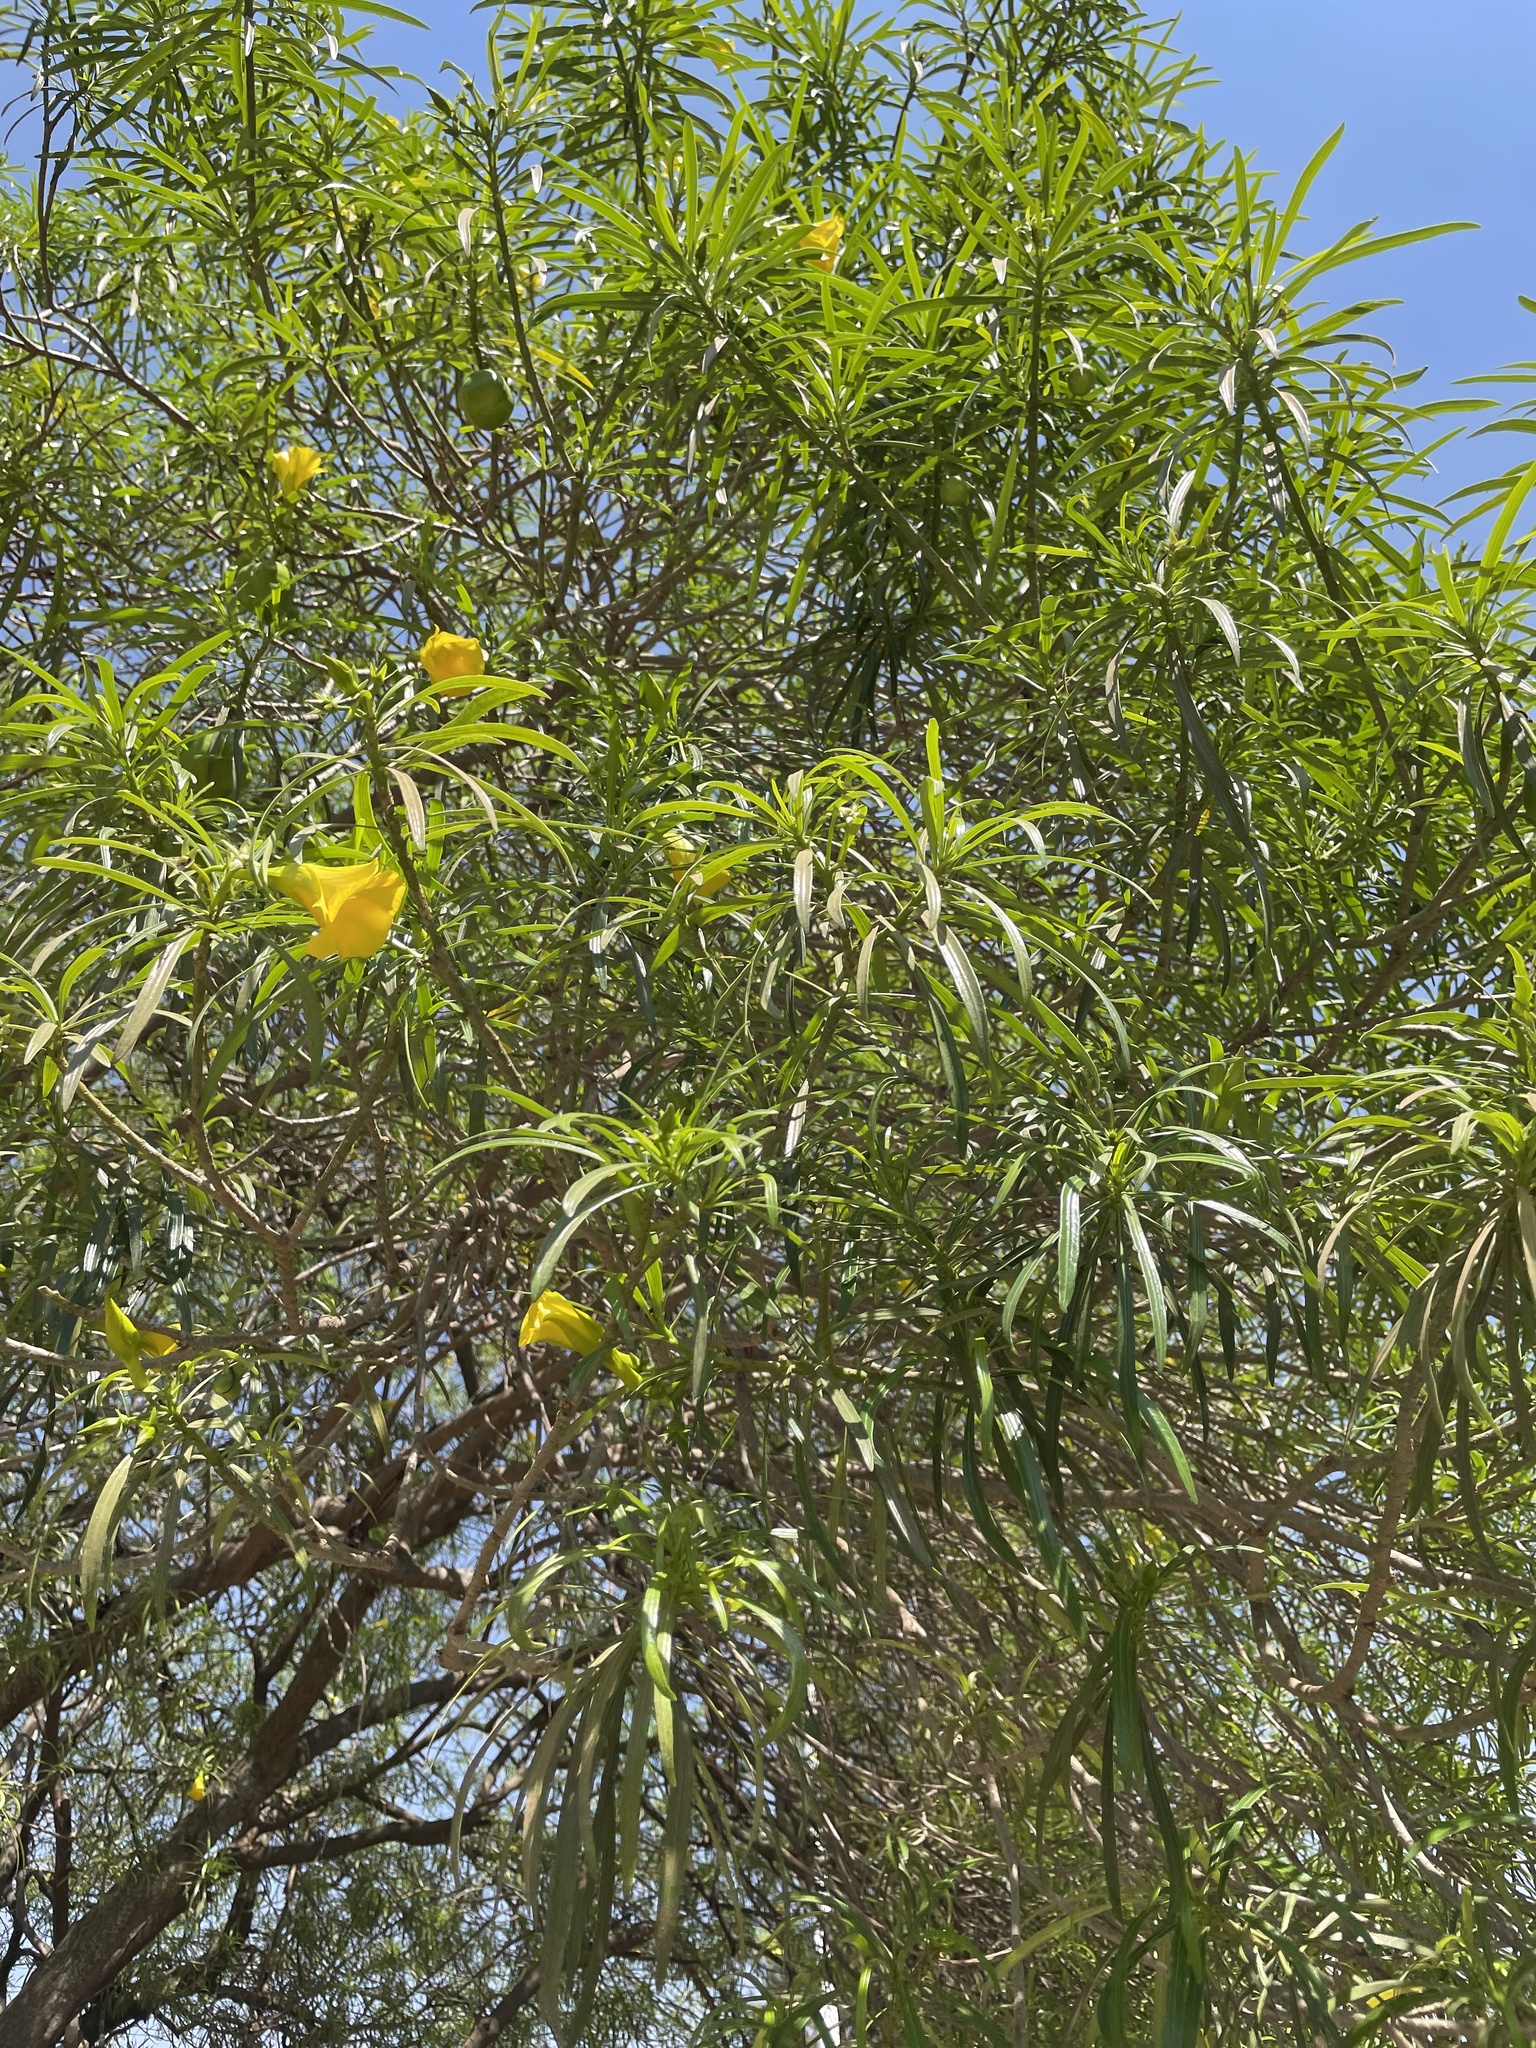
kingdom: Plantae
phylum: Tracheophyta
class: Magnoliopsida
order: Gentianales
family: Apocynaceae
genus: Cascabela
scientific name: Cascabela thevetia
